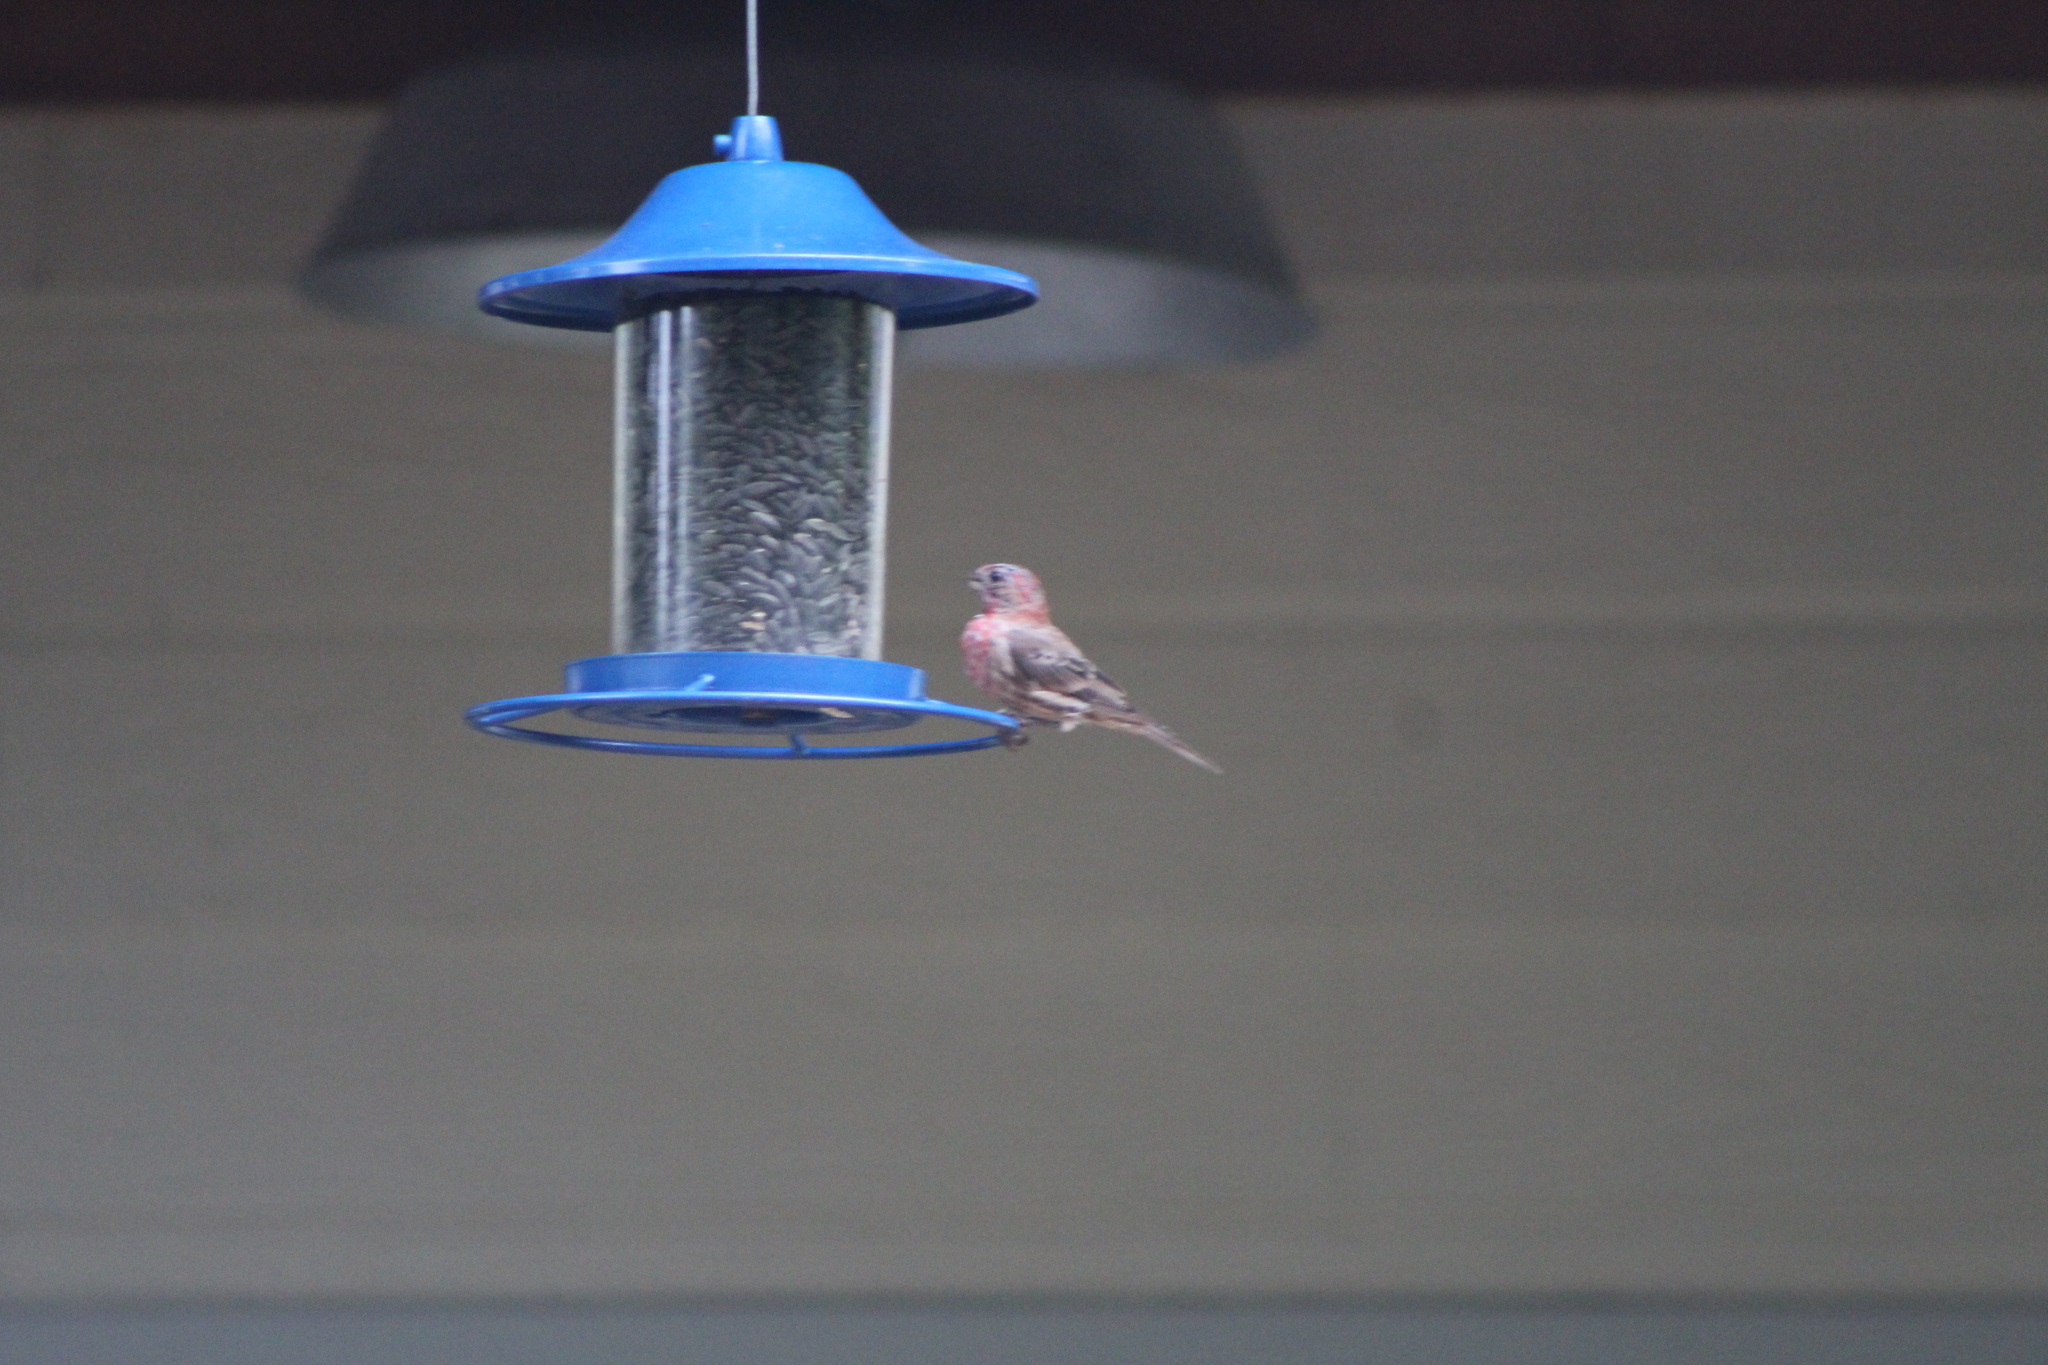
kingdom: Animalia
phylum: Chordata
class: Aves
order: Passeriformes
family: Fringillidae
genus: Haemorhous
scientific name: Haemorhous mexicanus
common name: House finch
